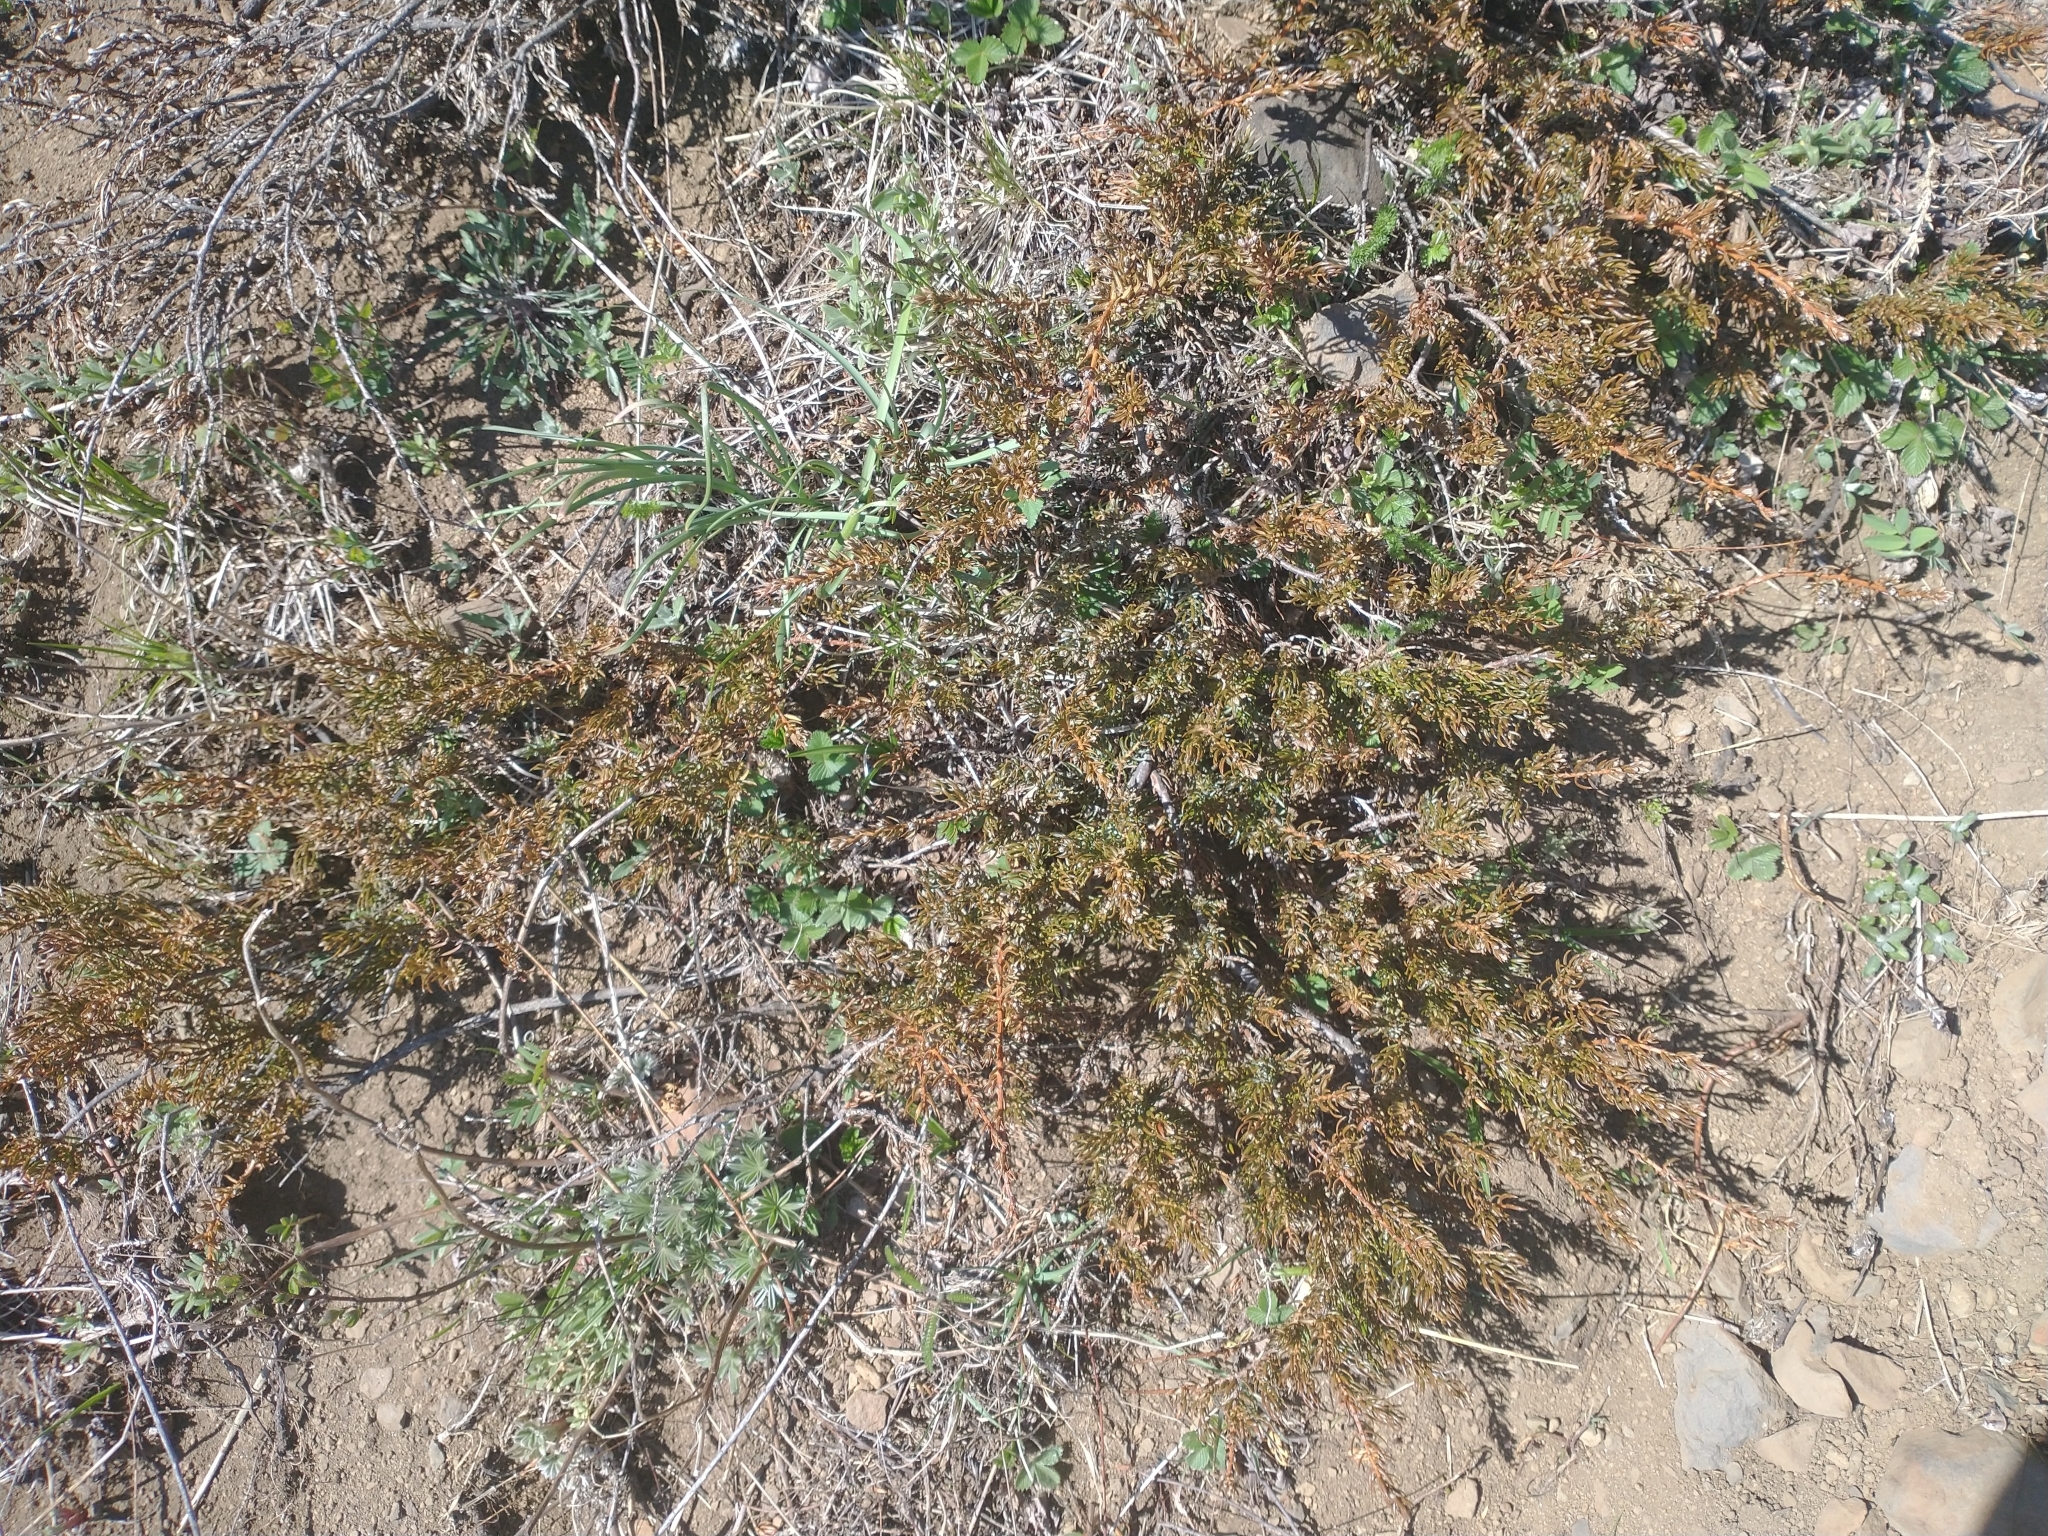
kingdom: Plantae
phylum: Tracheophyta
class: Pinopsida
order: Pinales
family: Cupressaceae
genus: Juniperus
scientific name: Juniperus communis
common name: Common juniper
